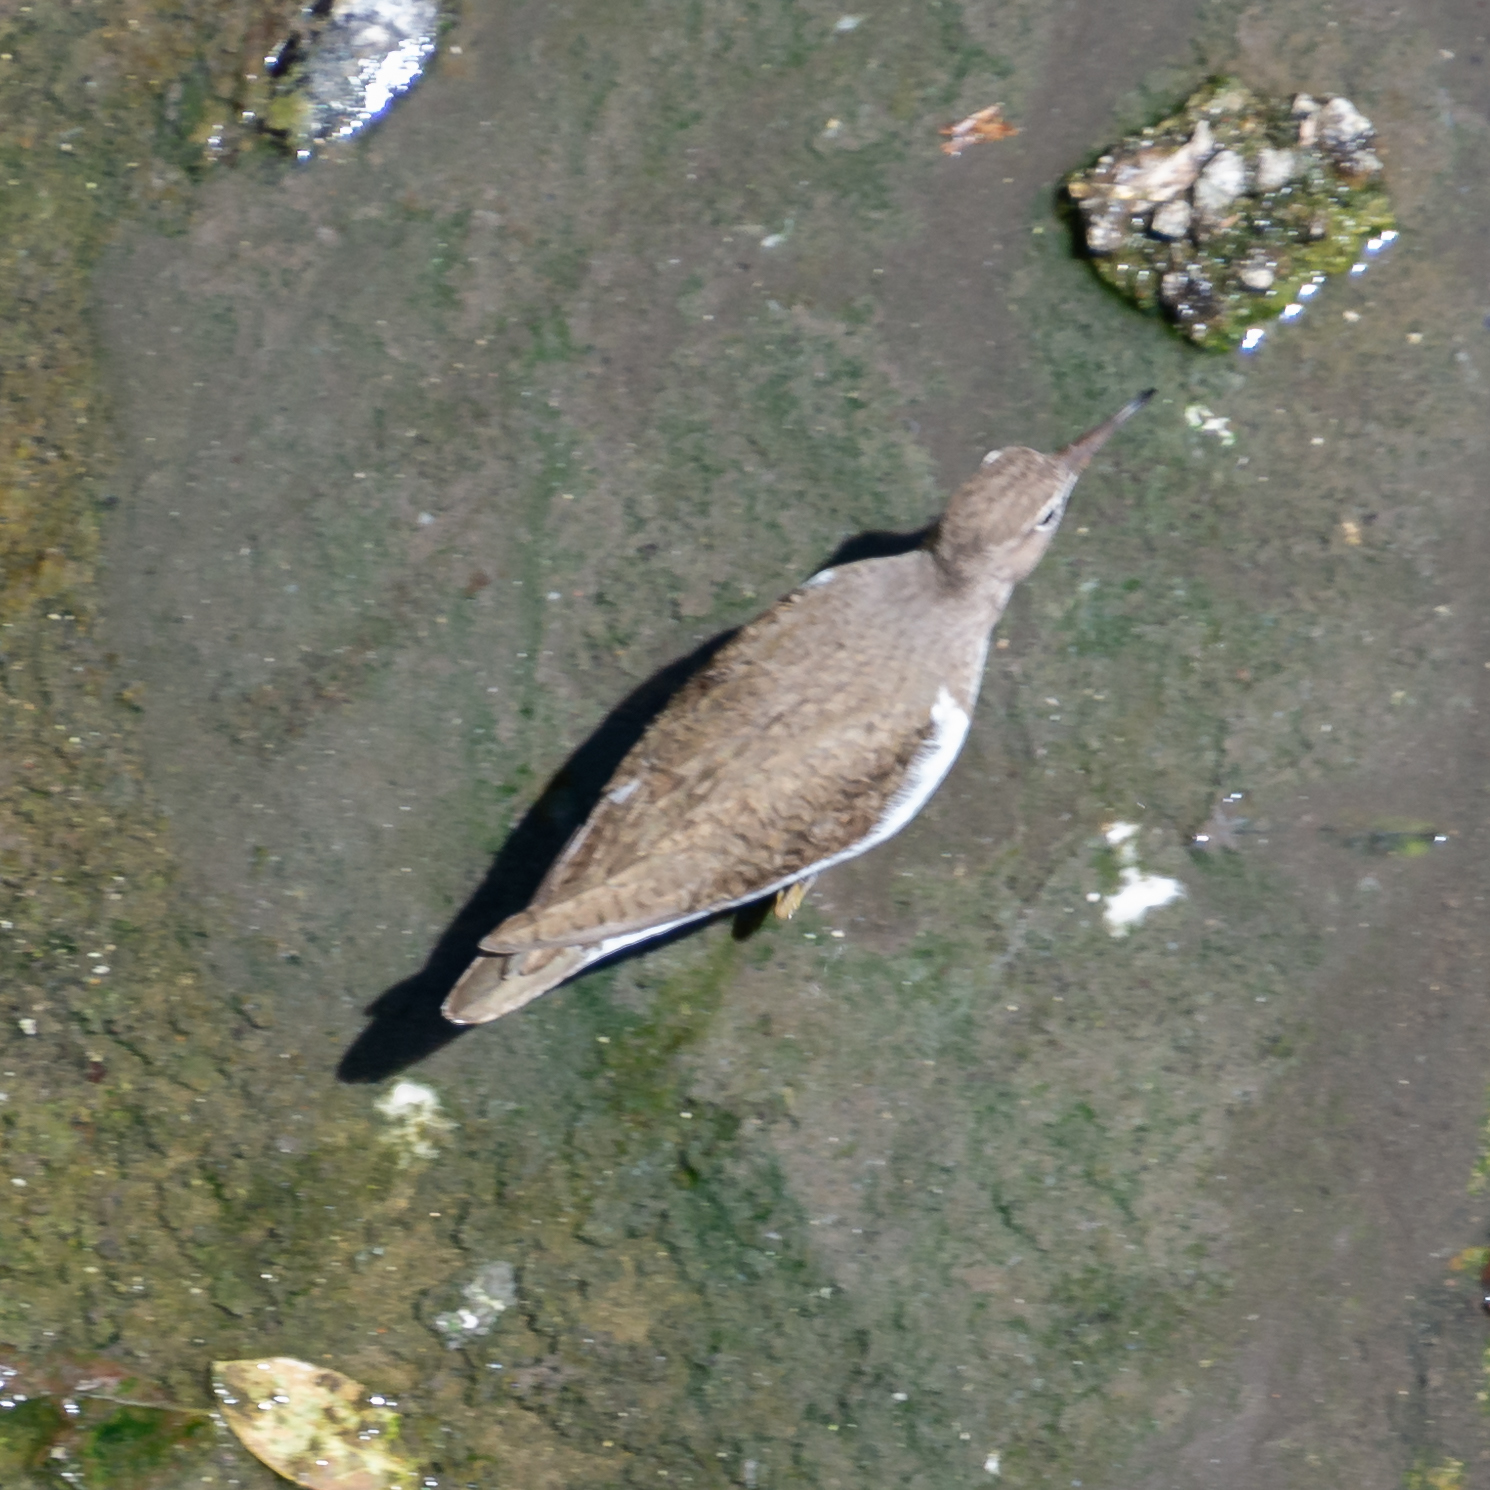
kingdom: Animalia
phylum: Chordata
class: Aves
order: Charadriiformes
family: Scolopacidae
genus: Actitis
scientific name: Actitis hypoleucos
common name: Common sandpiper
